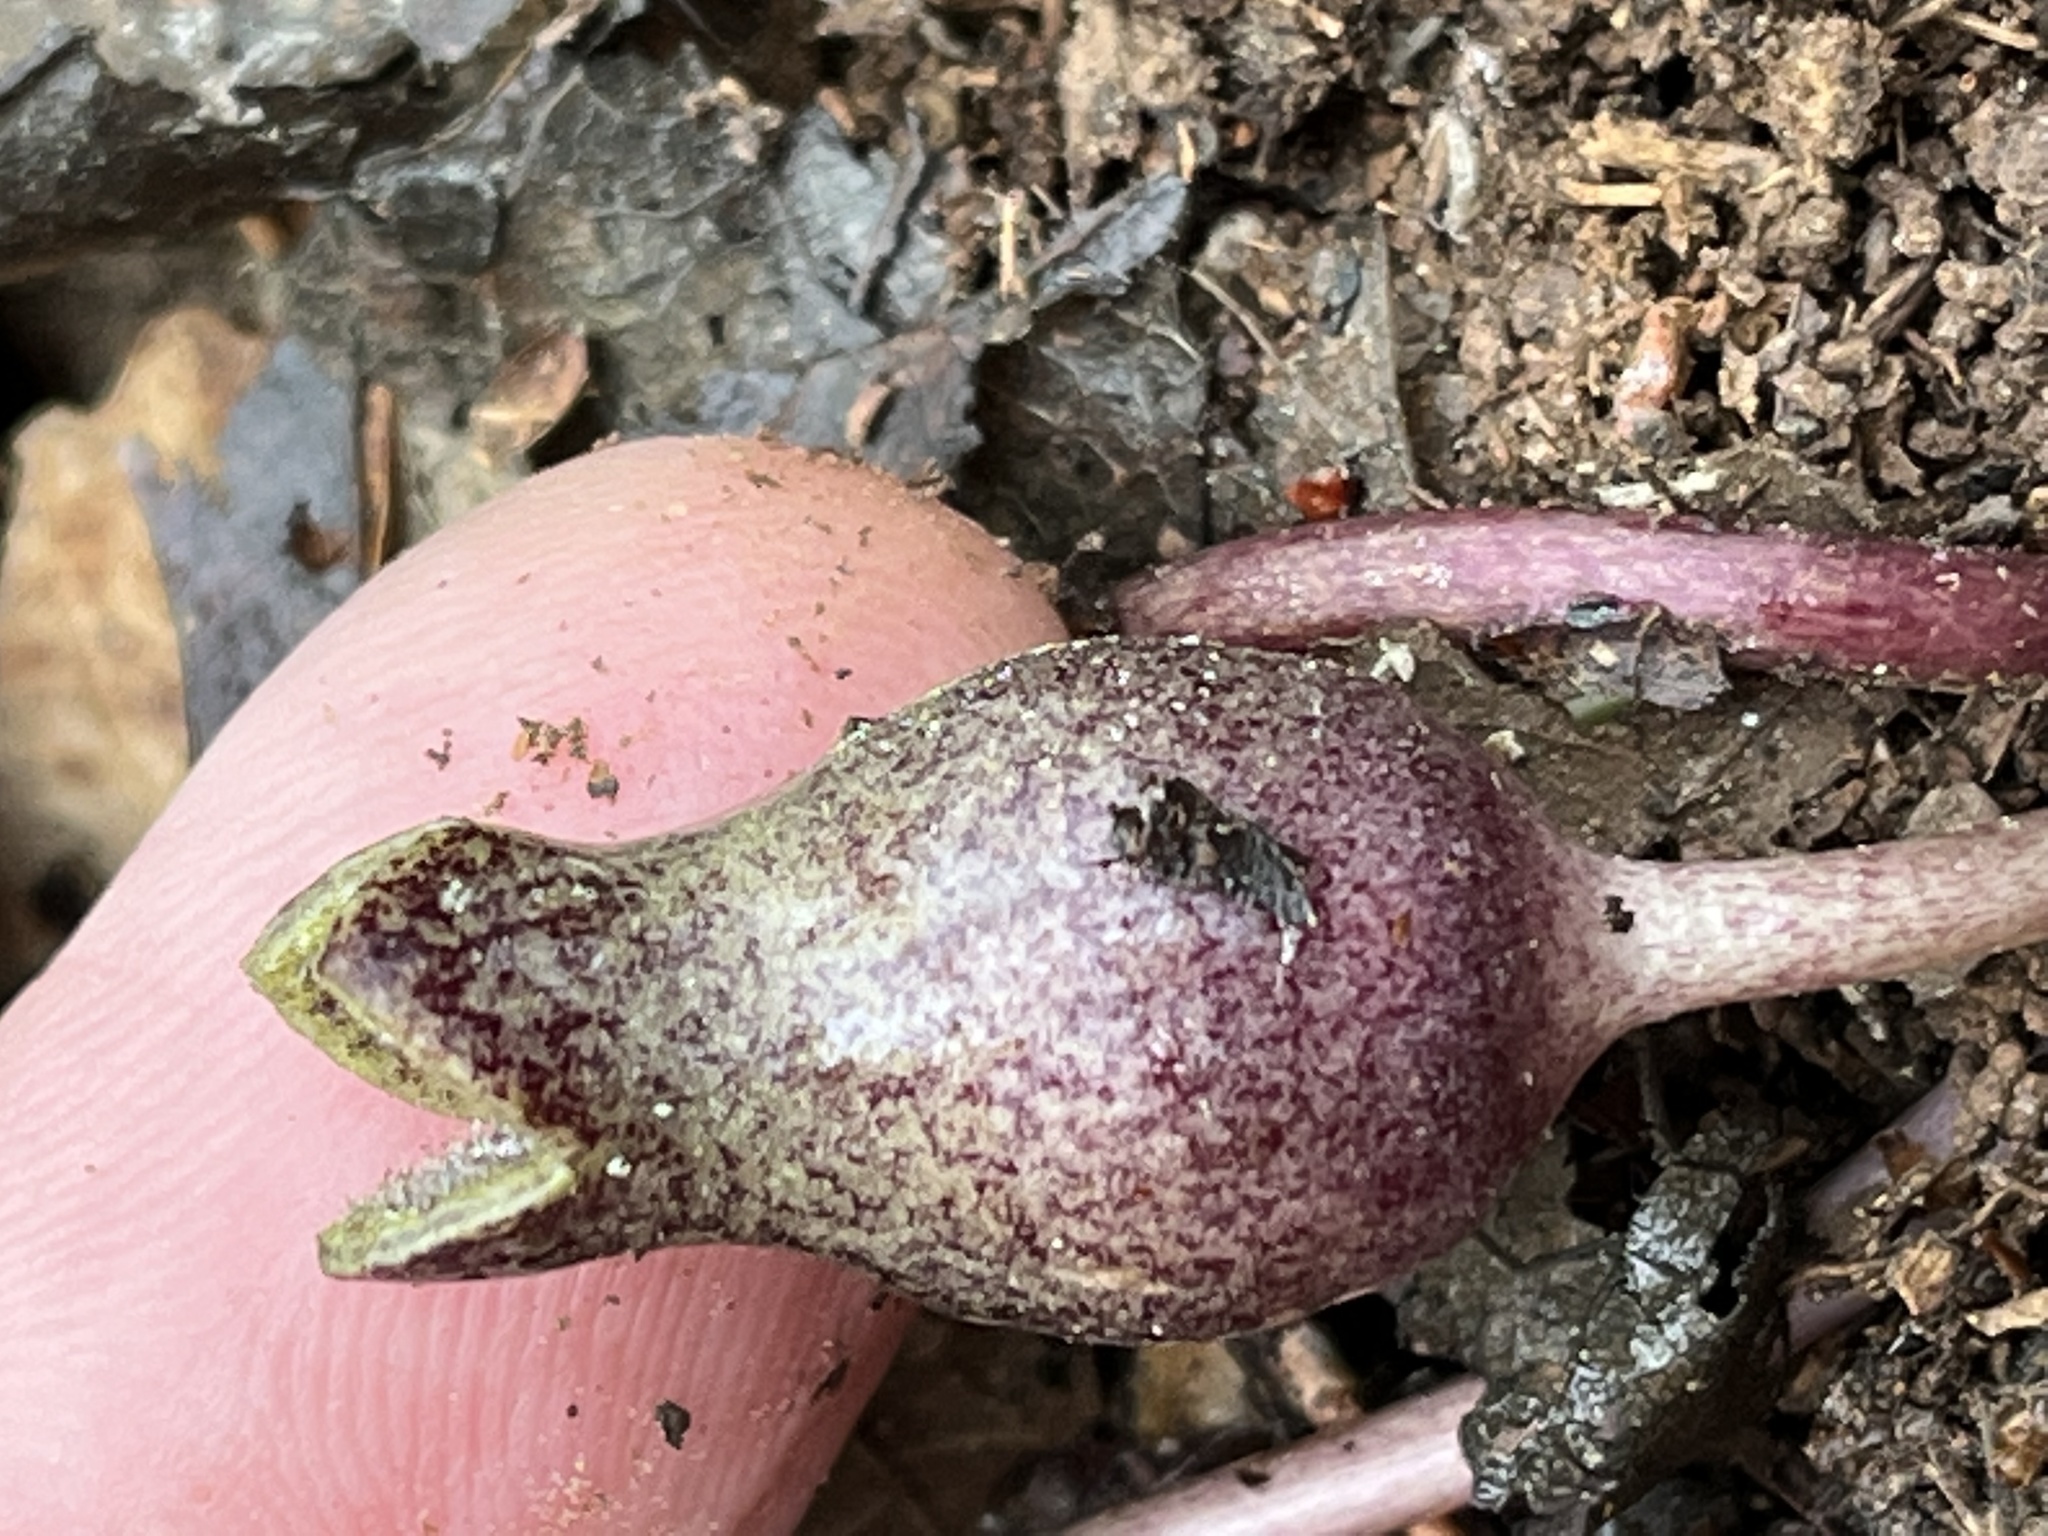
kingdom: Plantae
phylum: Tracheophyta
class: Magnoliopsida
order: Piperales
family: Aristolochiaceae
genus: Hexastylis
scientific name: Hexastylis arifolia
